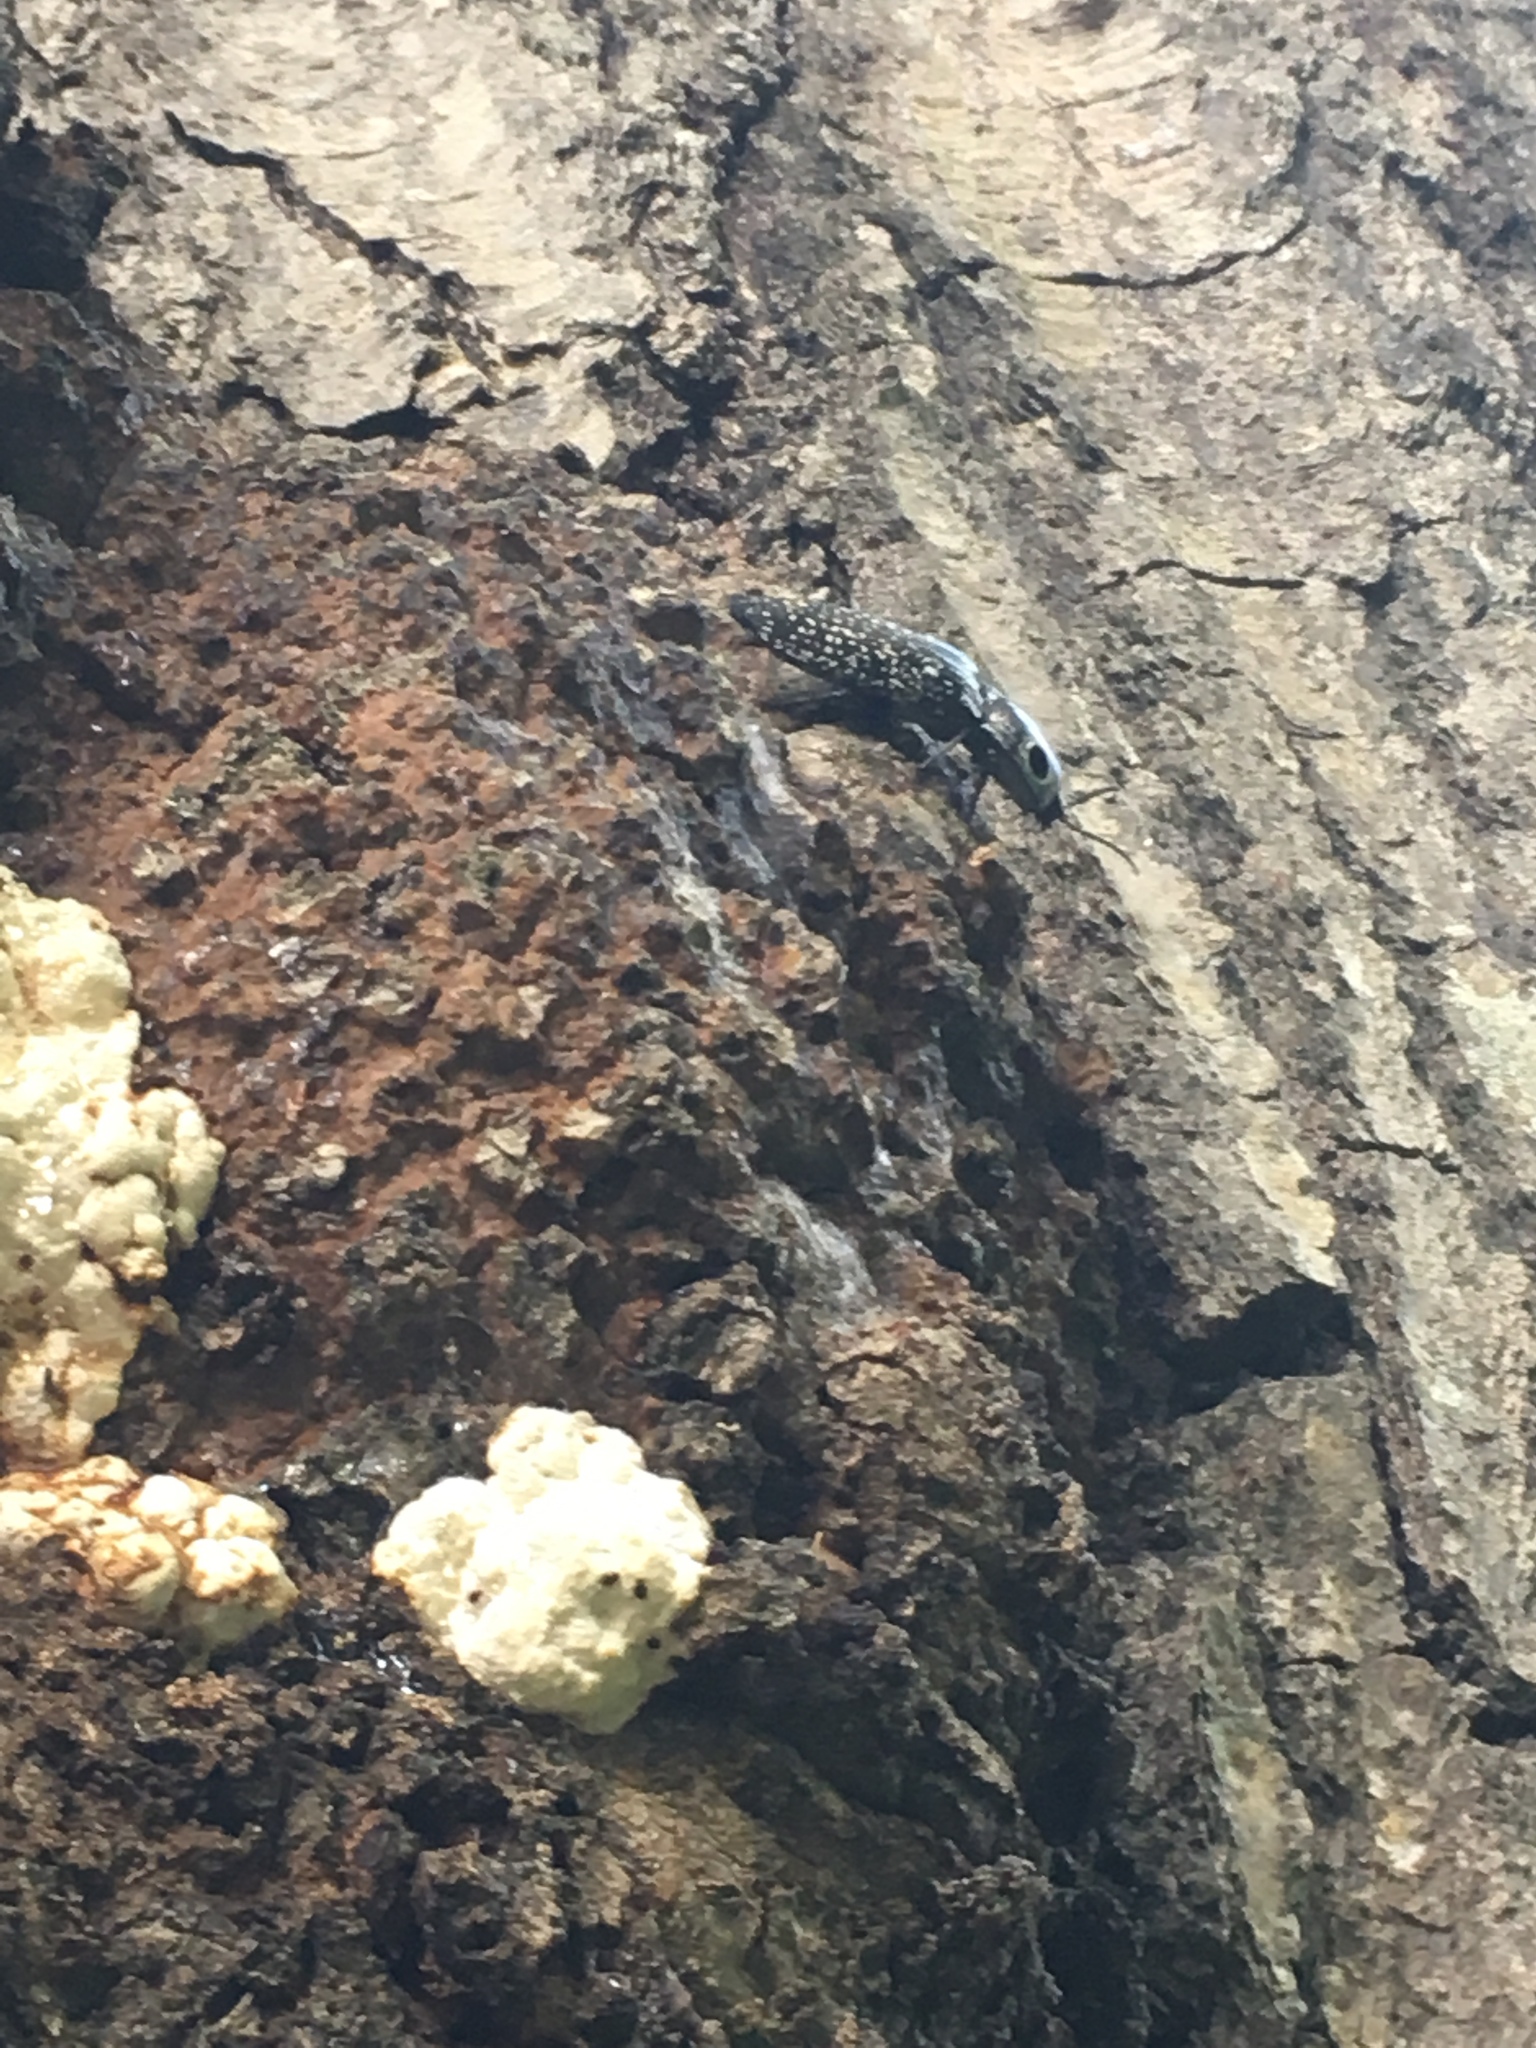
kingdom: Animalia
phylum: Arthropoda
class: Insecta
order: Coleoptera
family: Elateridae
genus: Alaus
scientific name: Alaus oculatus
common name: Eastern eyed click beetle
